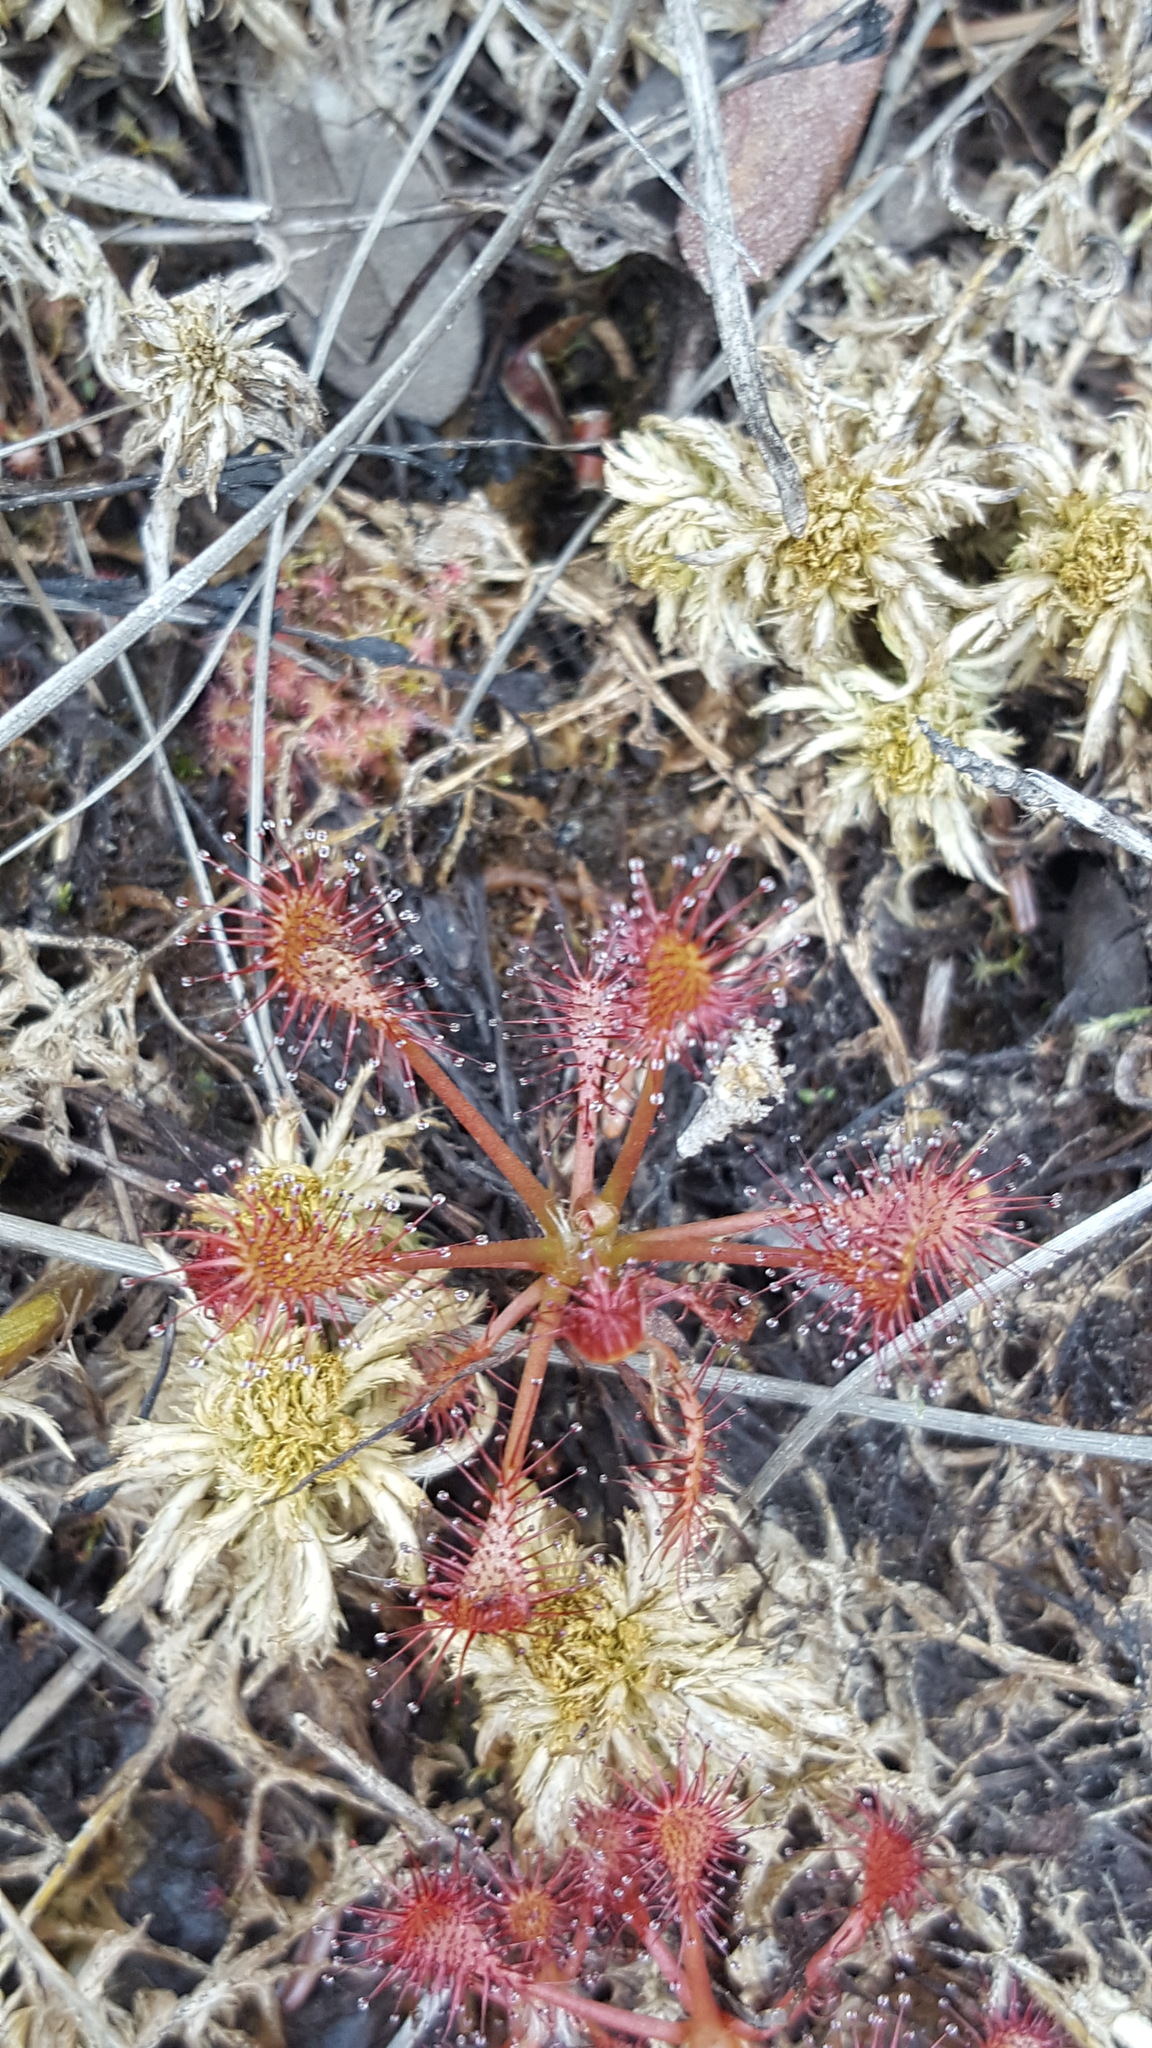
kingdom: Plantae
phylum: Tracheophyta
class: Magnoliopsida
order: Caryophyllales
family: Droseraceae
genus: Drosera
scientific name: Drosera intermedia
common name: Oblong-leaved sundew
